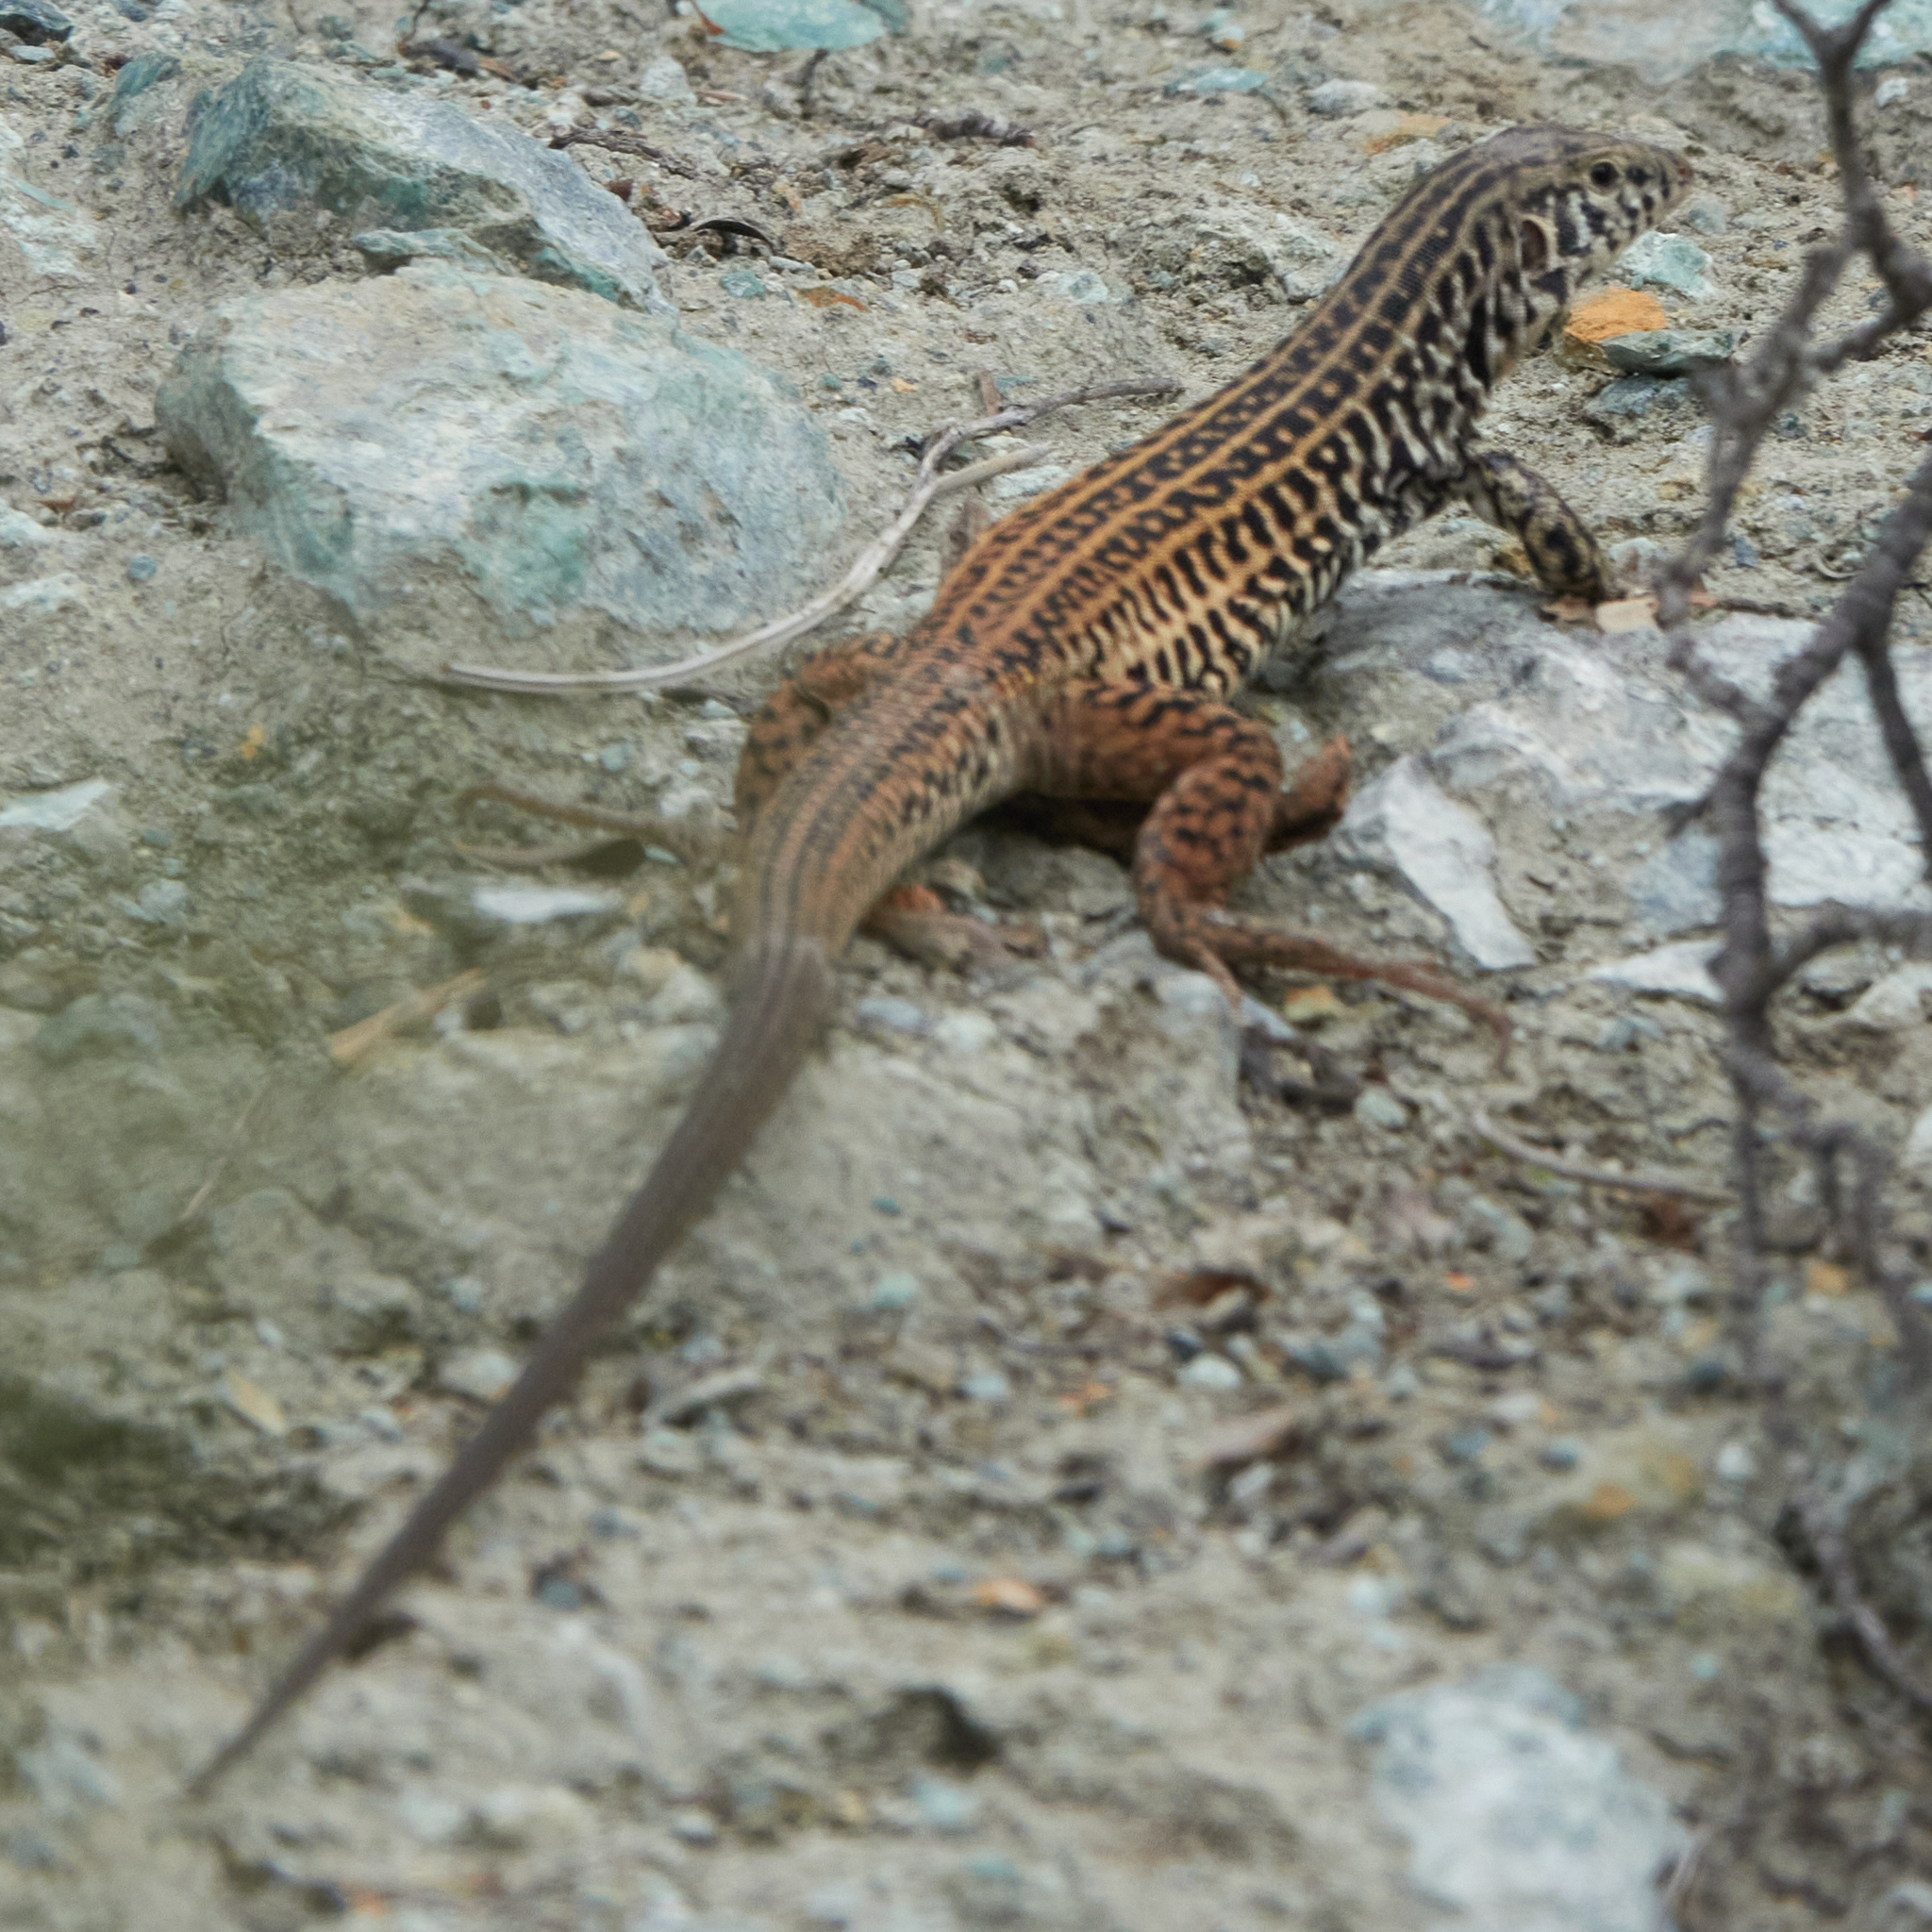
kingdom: Animalia
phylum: Chordata
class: Squamata
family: Teiidae
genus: Aspidoscelis
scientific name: Aspidoscelis tigris
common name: Tiger whiptail
